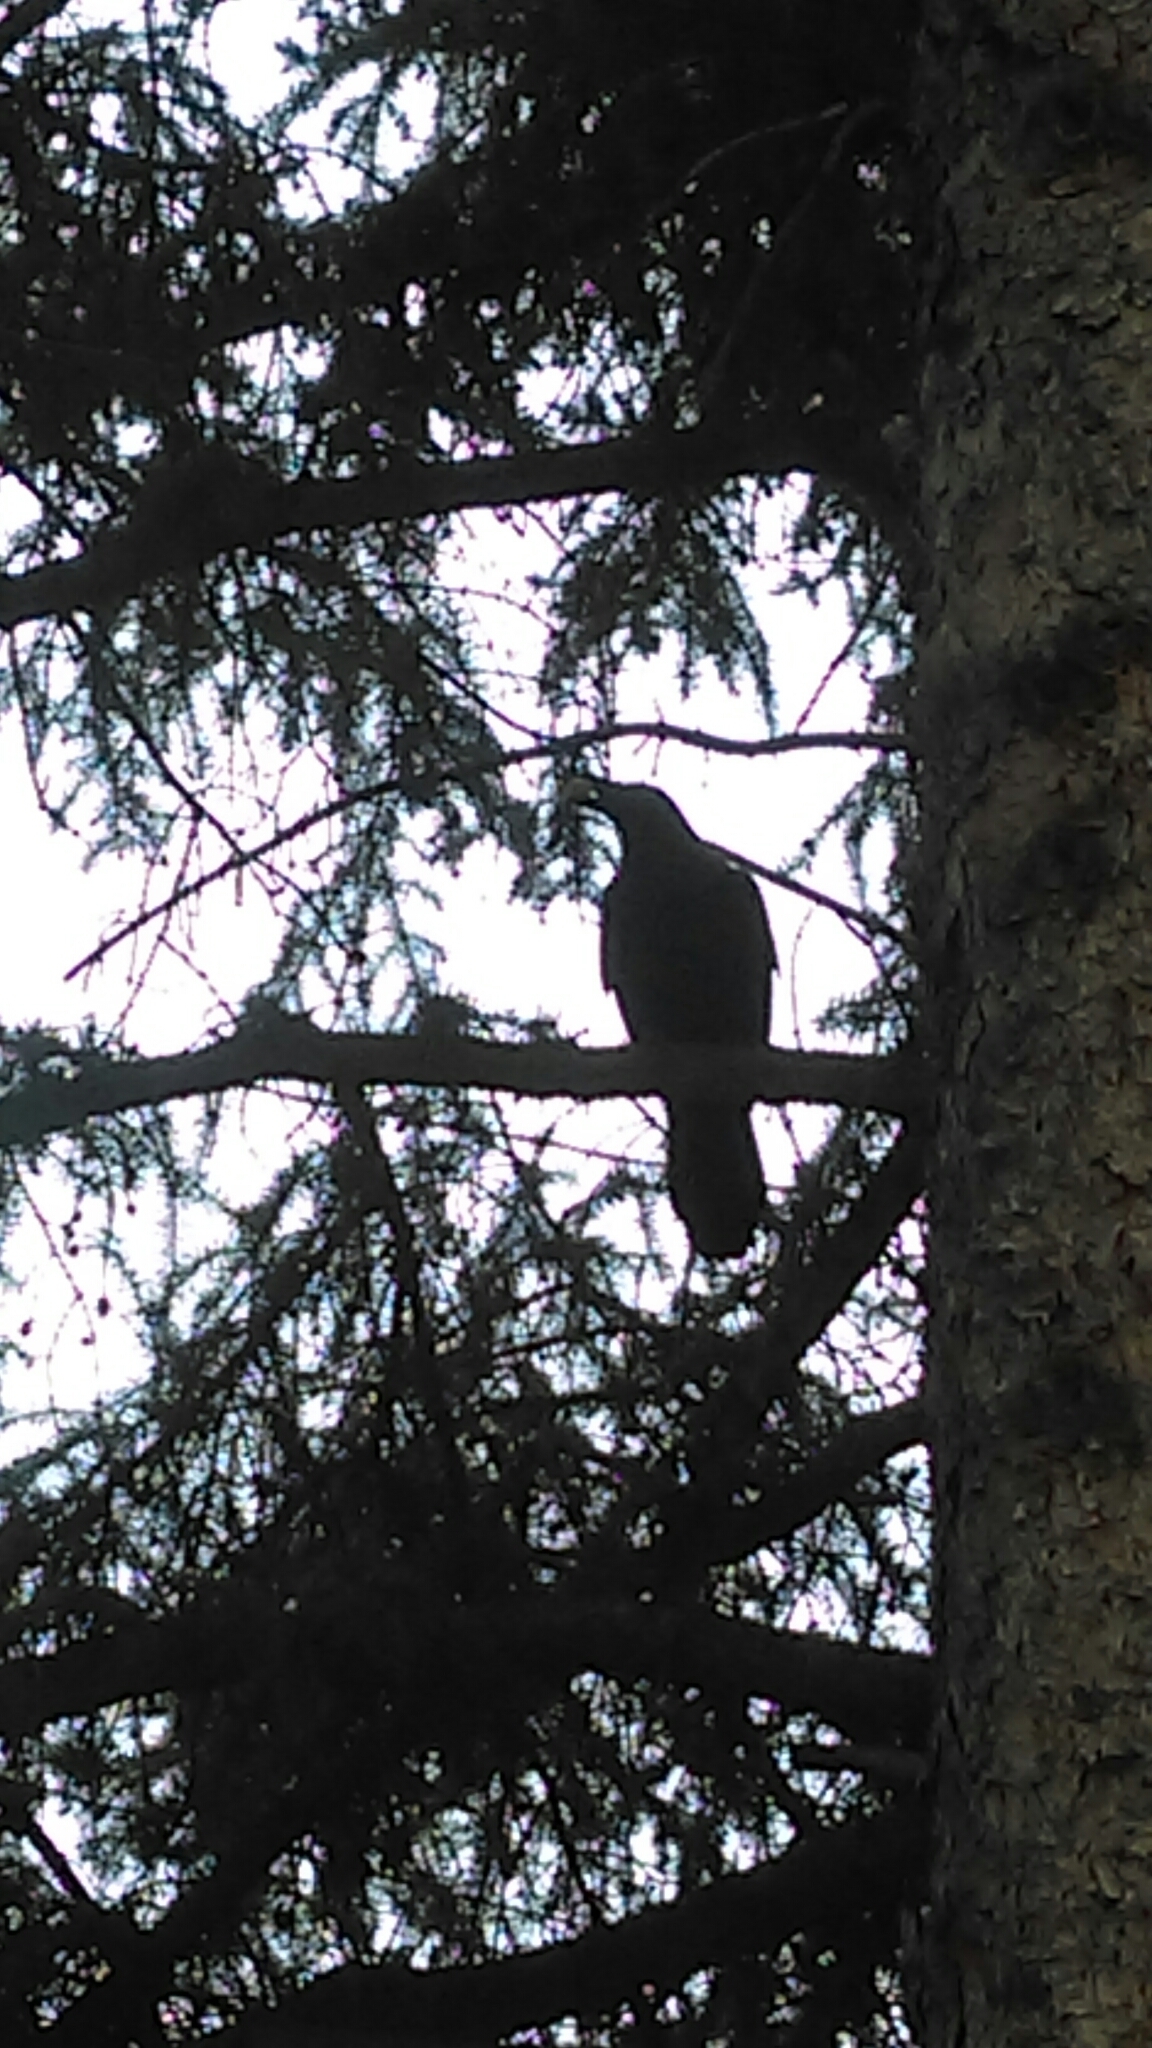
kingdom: Animalia
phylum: Chordata
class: Aves
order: Passeriformes
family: Corvidae
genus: Corvus
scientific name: Corvus corax
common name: Common raven
